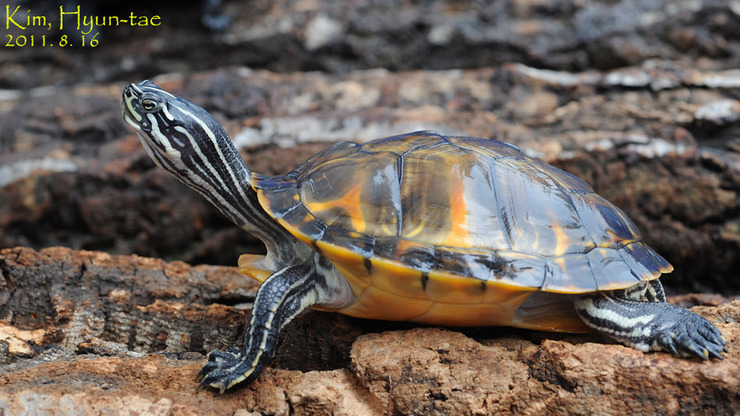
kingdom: Animalia
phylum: Chordata
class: Testudines
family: Emydidae
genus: Pseudemys
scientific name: Pseudemys nelsoni
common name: Florida red-bellied turtle
